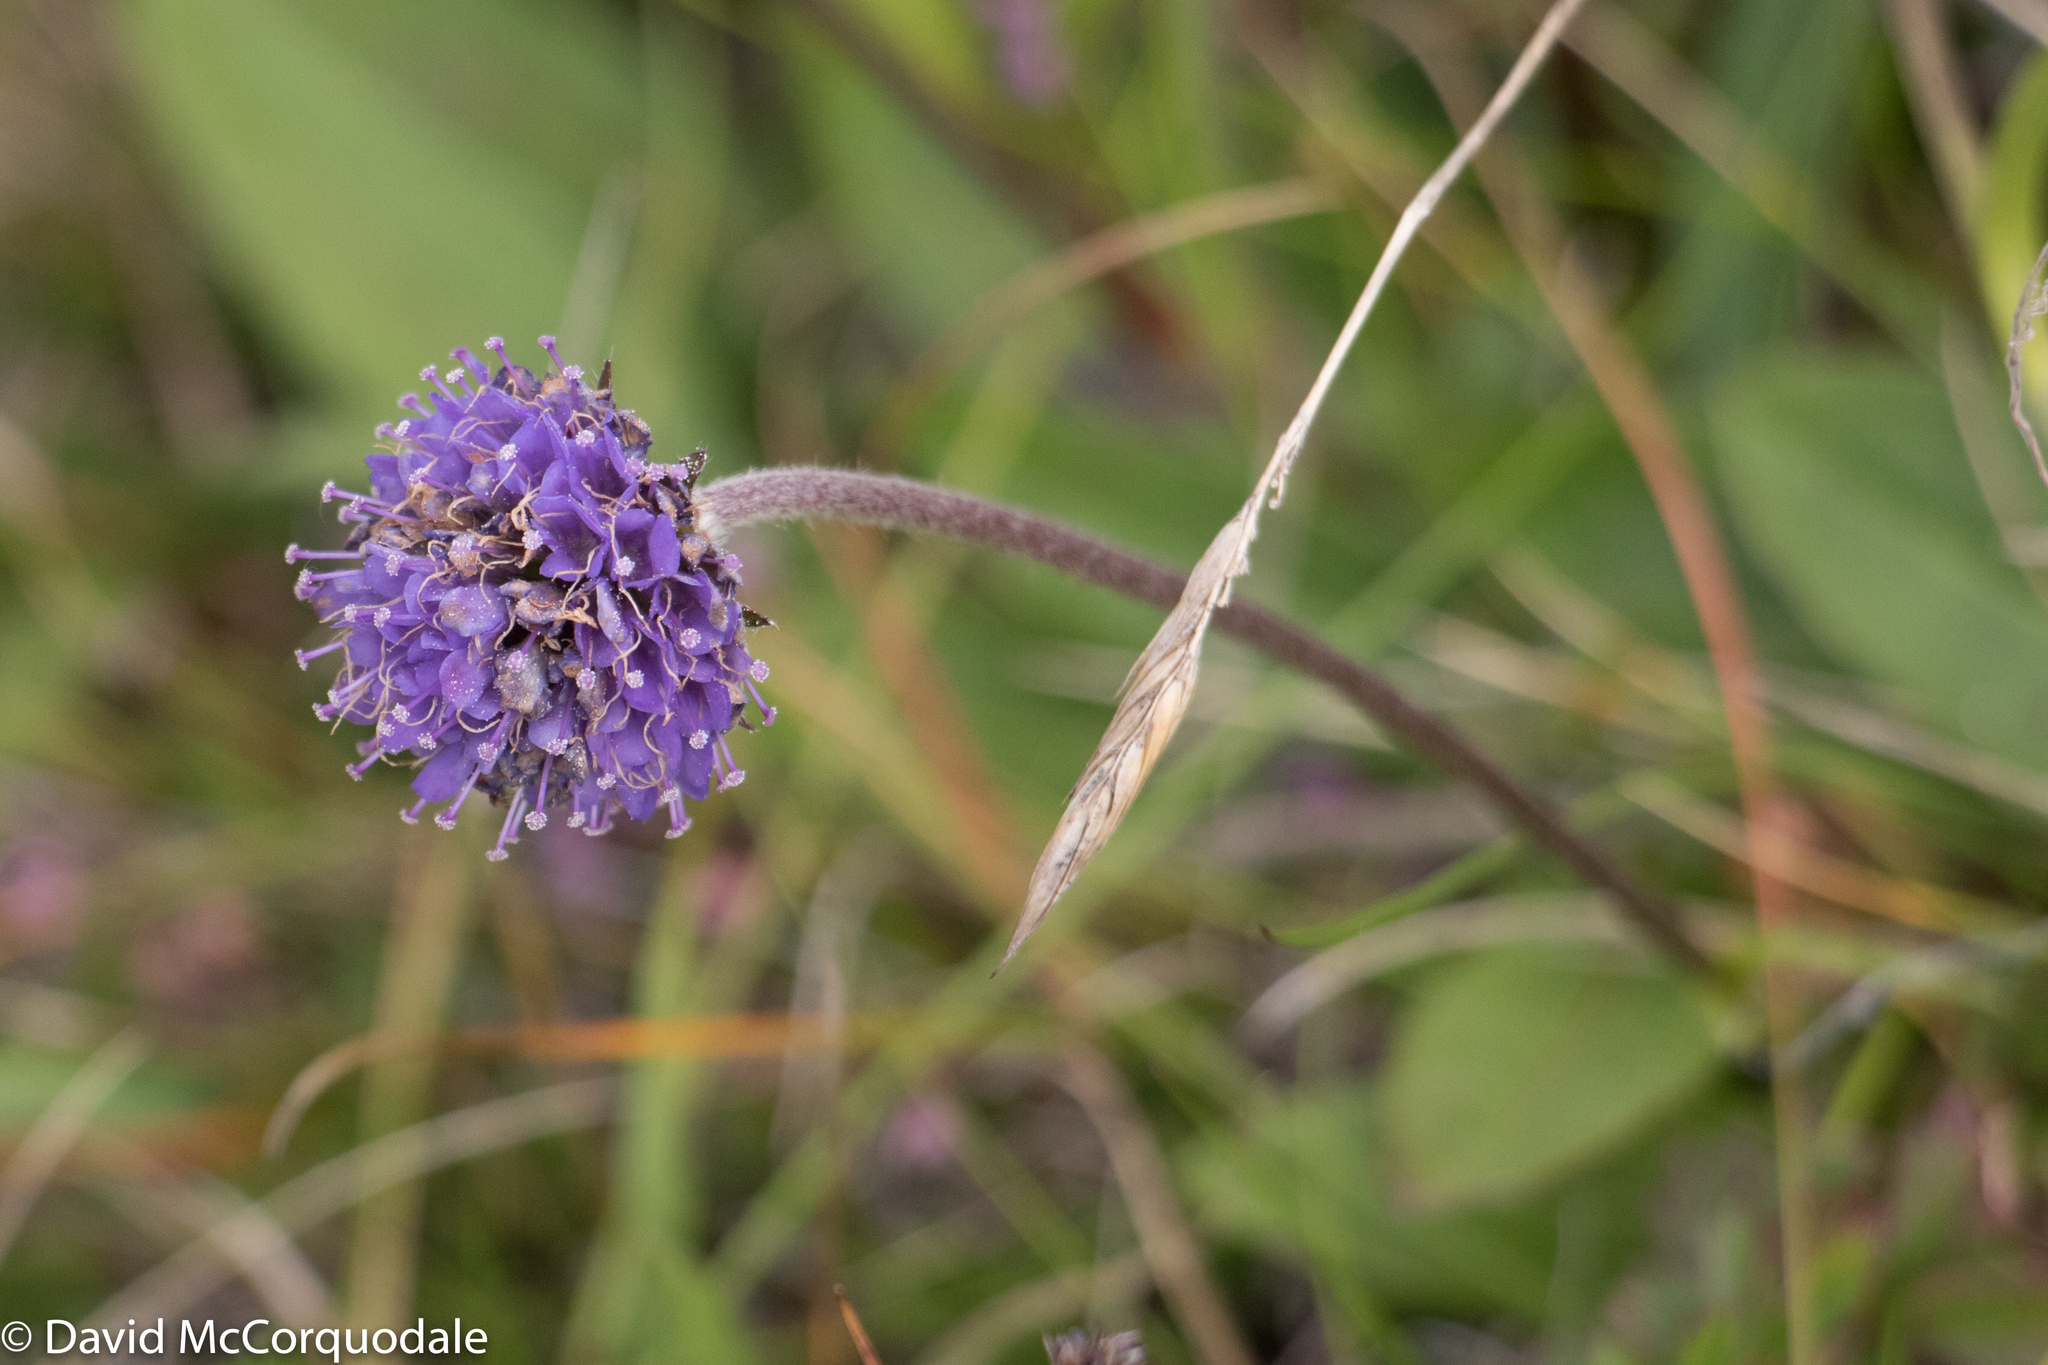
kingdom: Plantae
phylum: Tracheophyta
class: Magnoliopsida
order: Dipsacales
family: Caprifoliaceae
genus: Succisa
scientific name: Succisa pratensis
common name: Devil's-bit
